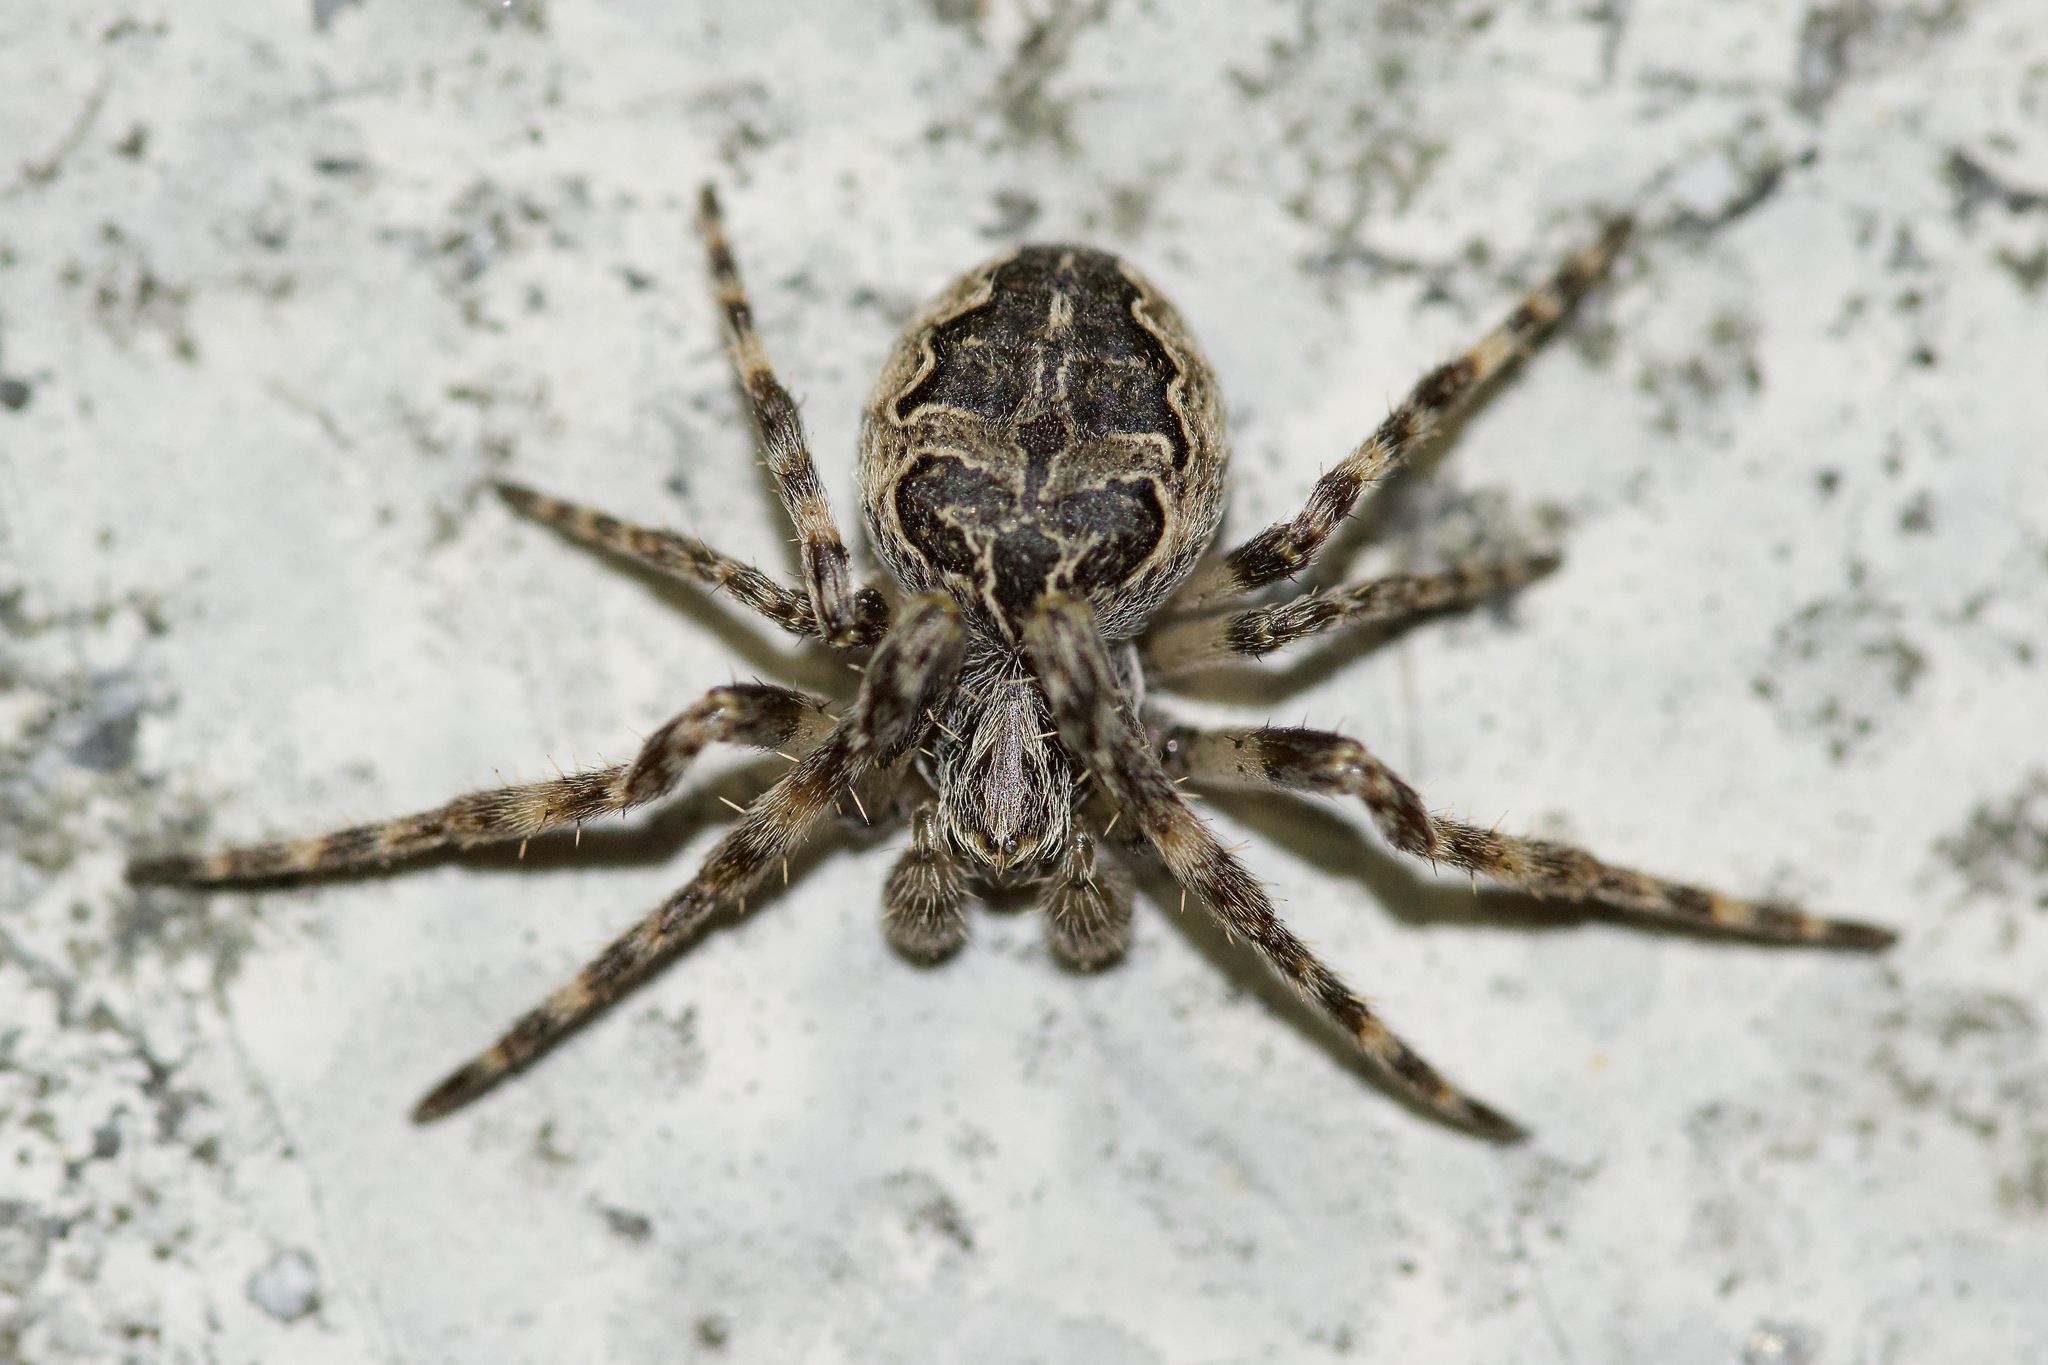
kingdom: Animalia
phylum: Arthropoda
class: Arachnida
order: Araneae
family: Araneidae
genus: Larinioides
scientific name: Larinioides sclopetarius
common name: Bridge orbweaver
